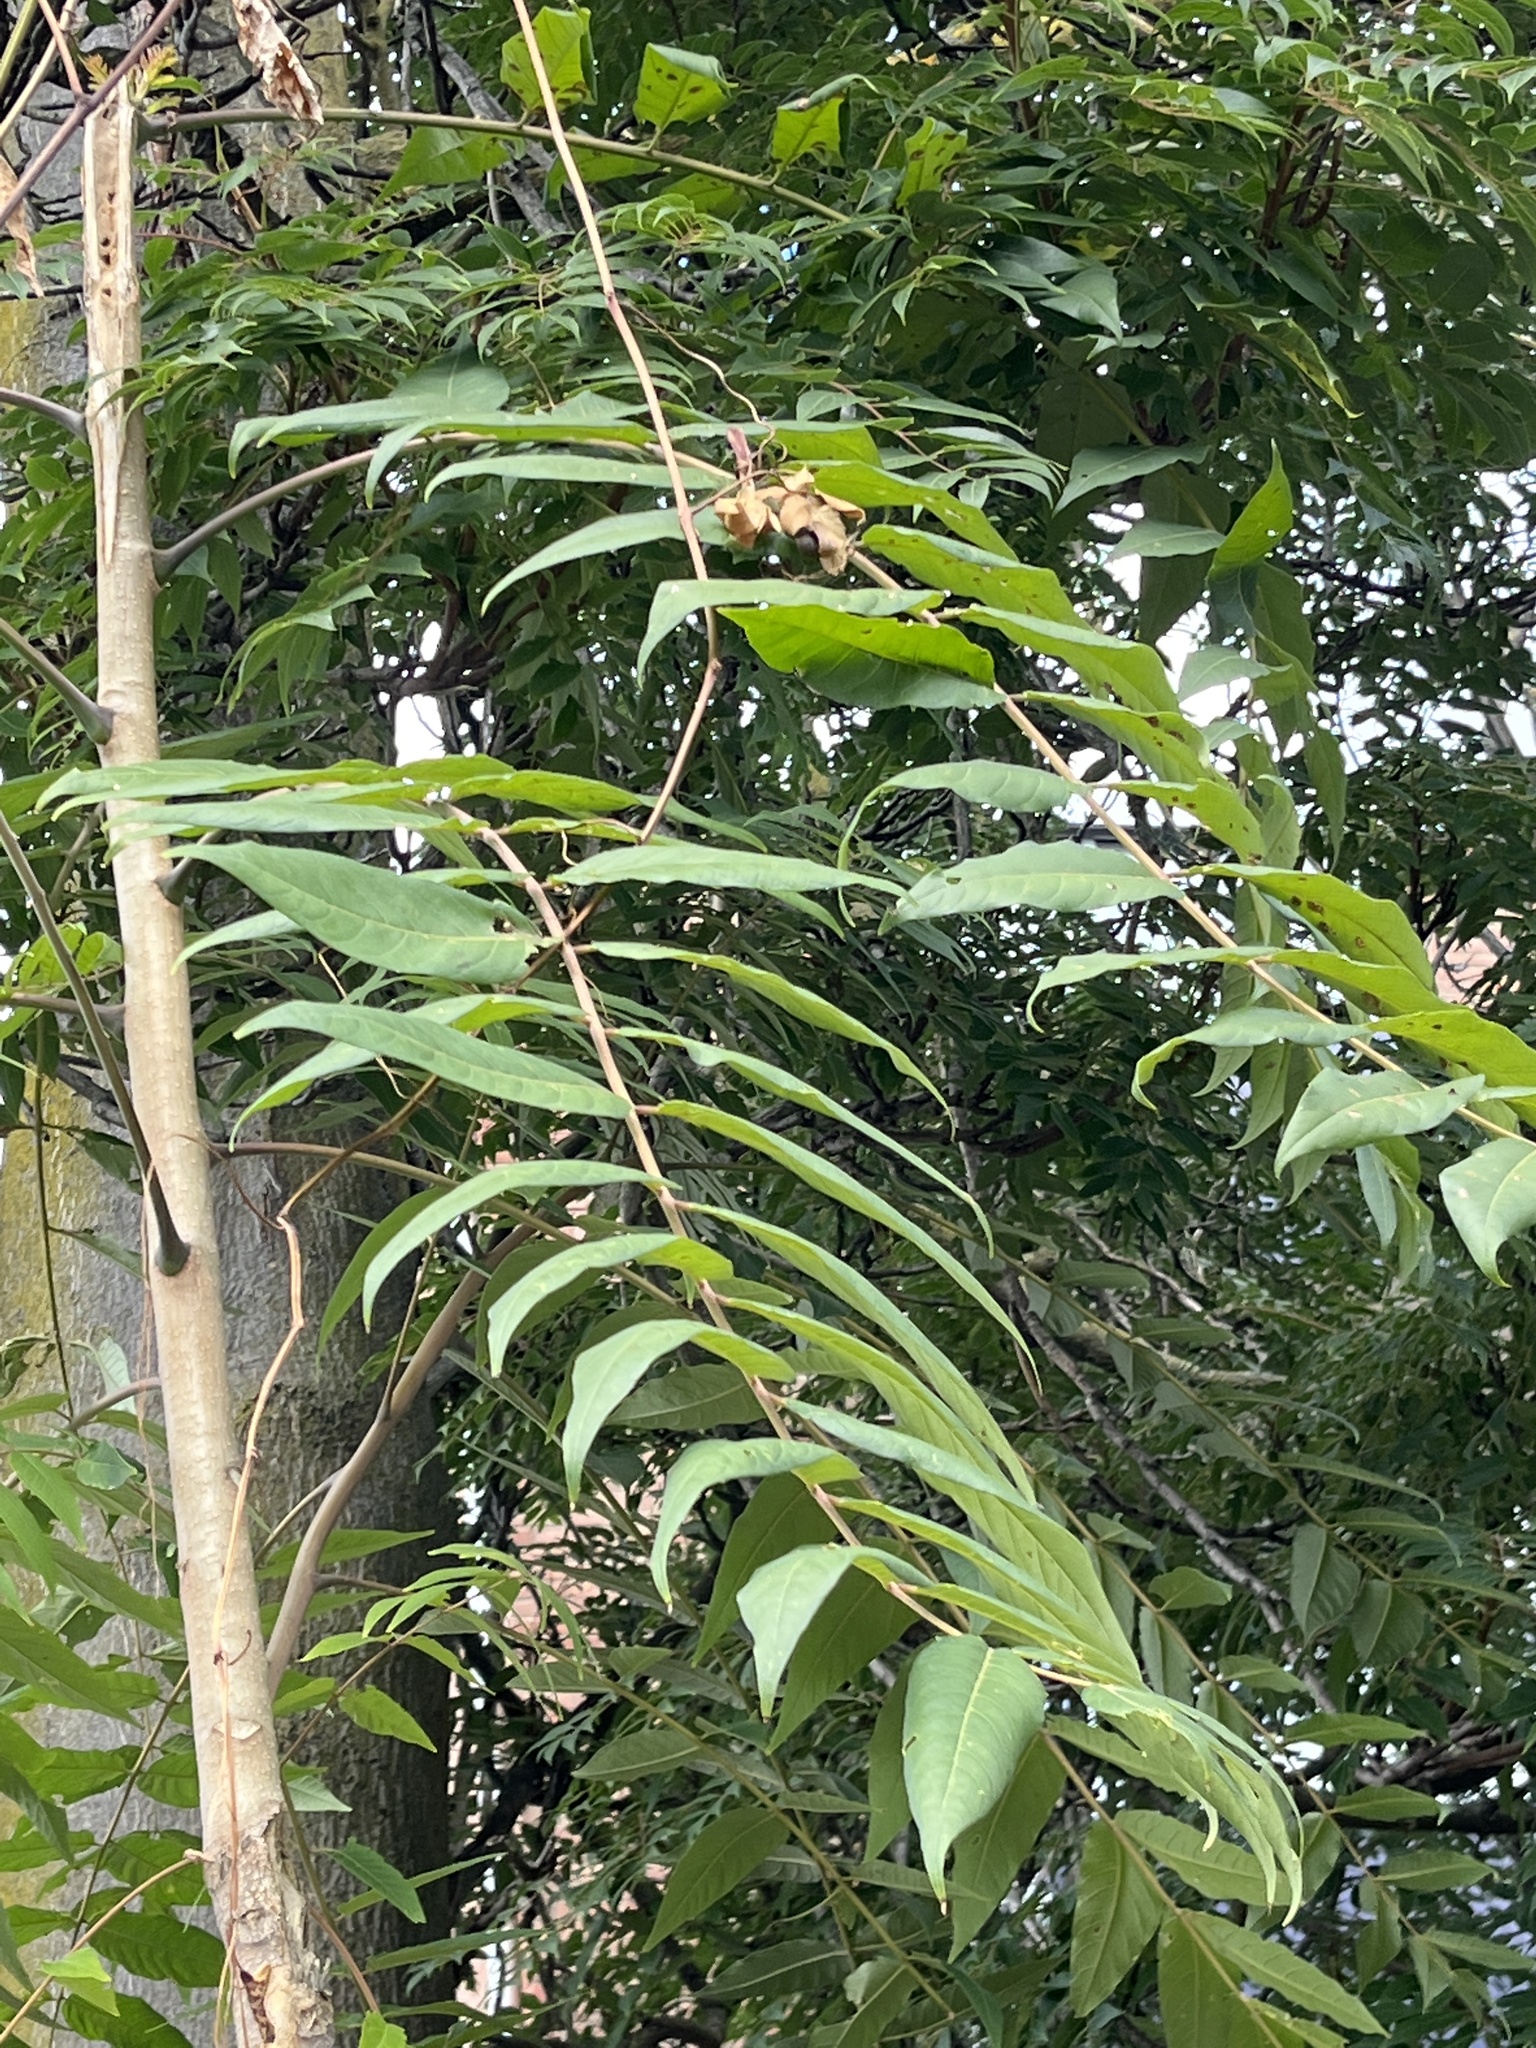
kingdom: Plantae
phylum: Tracheophyta
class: Magnoliopsida
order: Sapindales
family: Simaroubaceae
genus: Ailanthus
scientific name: Ailanthus altissima
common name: Tree-of-heaven
